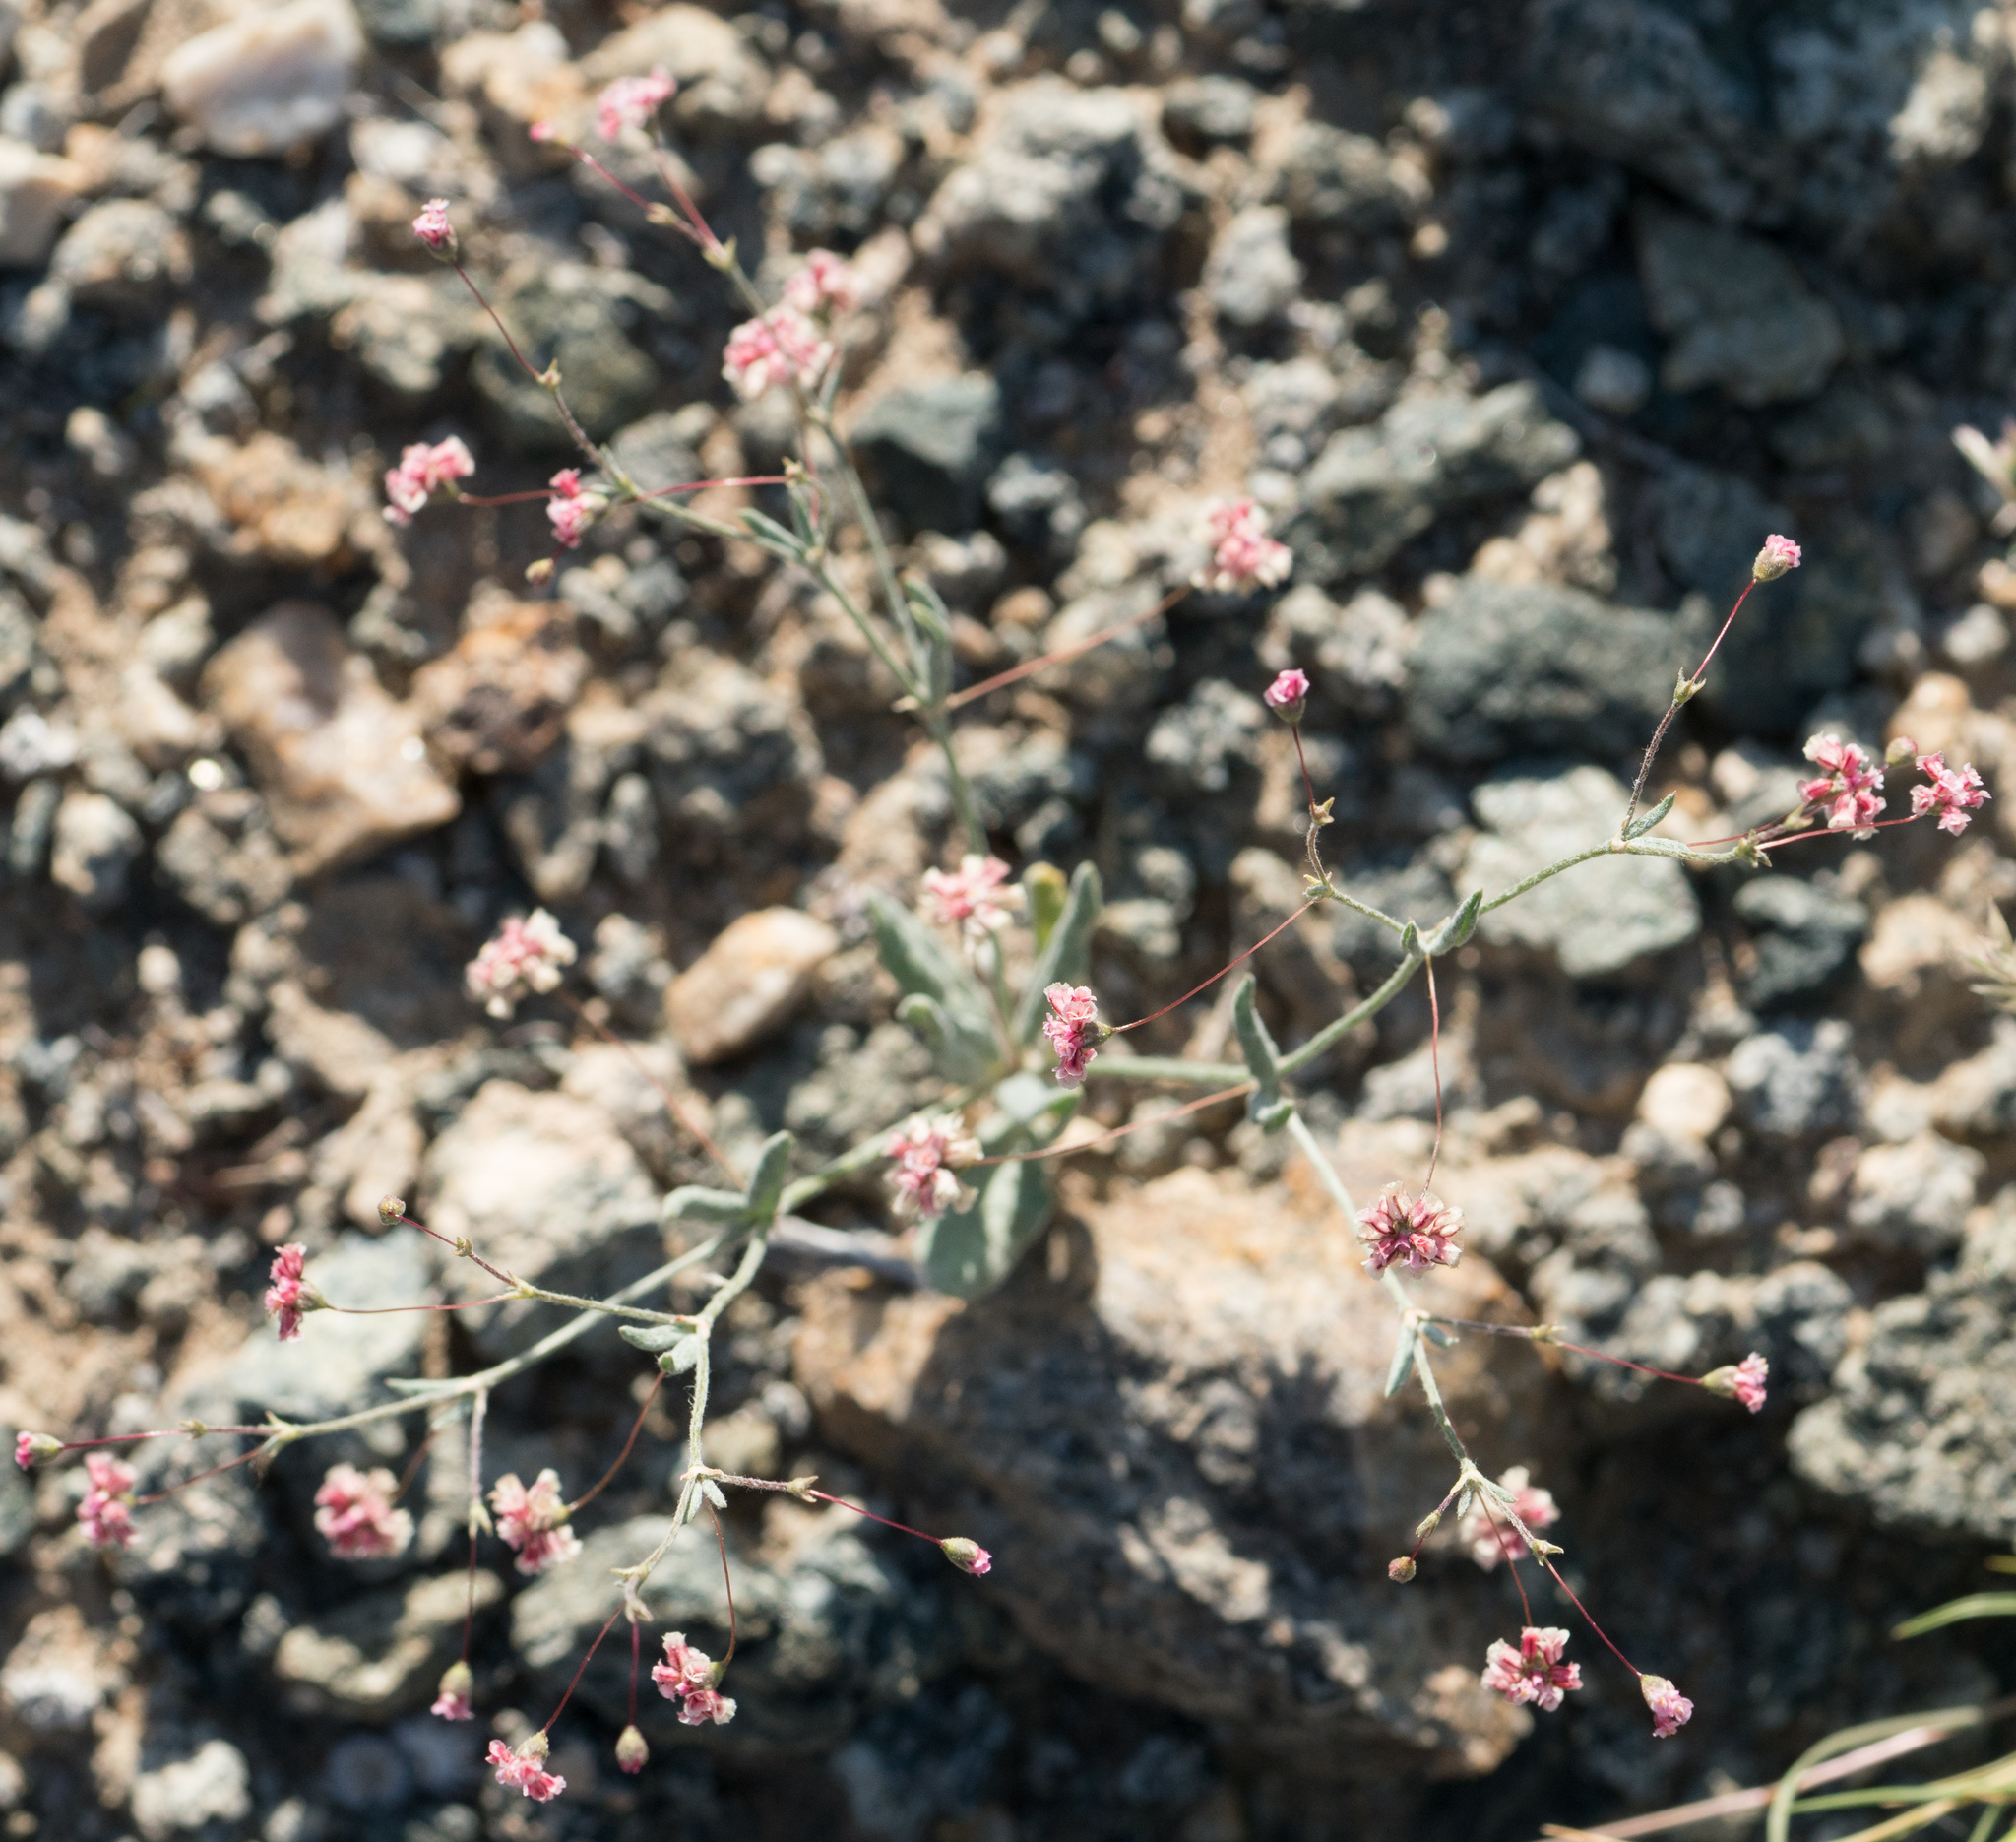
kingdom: Plantae
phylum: Tracheophyta
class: Magnoliopsida
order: Caryophyllales
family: Polygonaceae
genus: Eriogonum
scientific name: Eriogonum gracillimum
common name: Rose-and-white wild buckwheat
